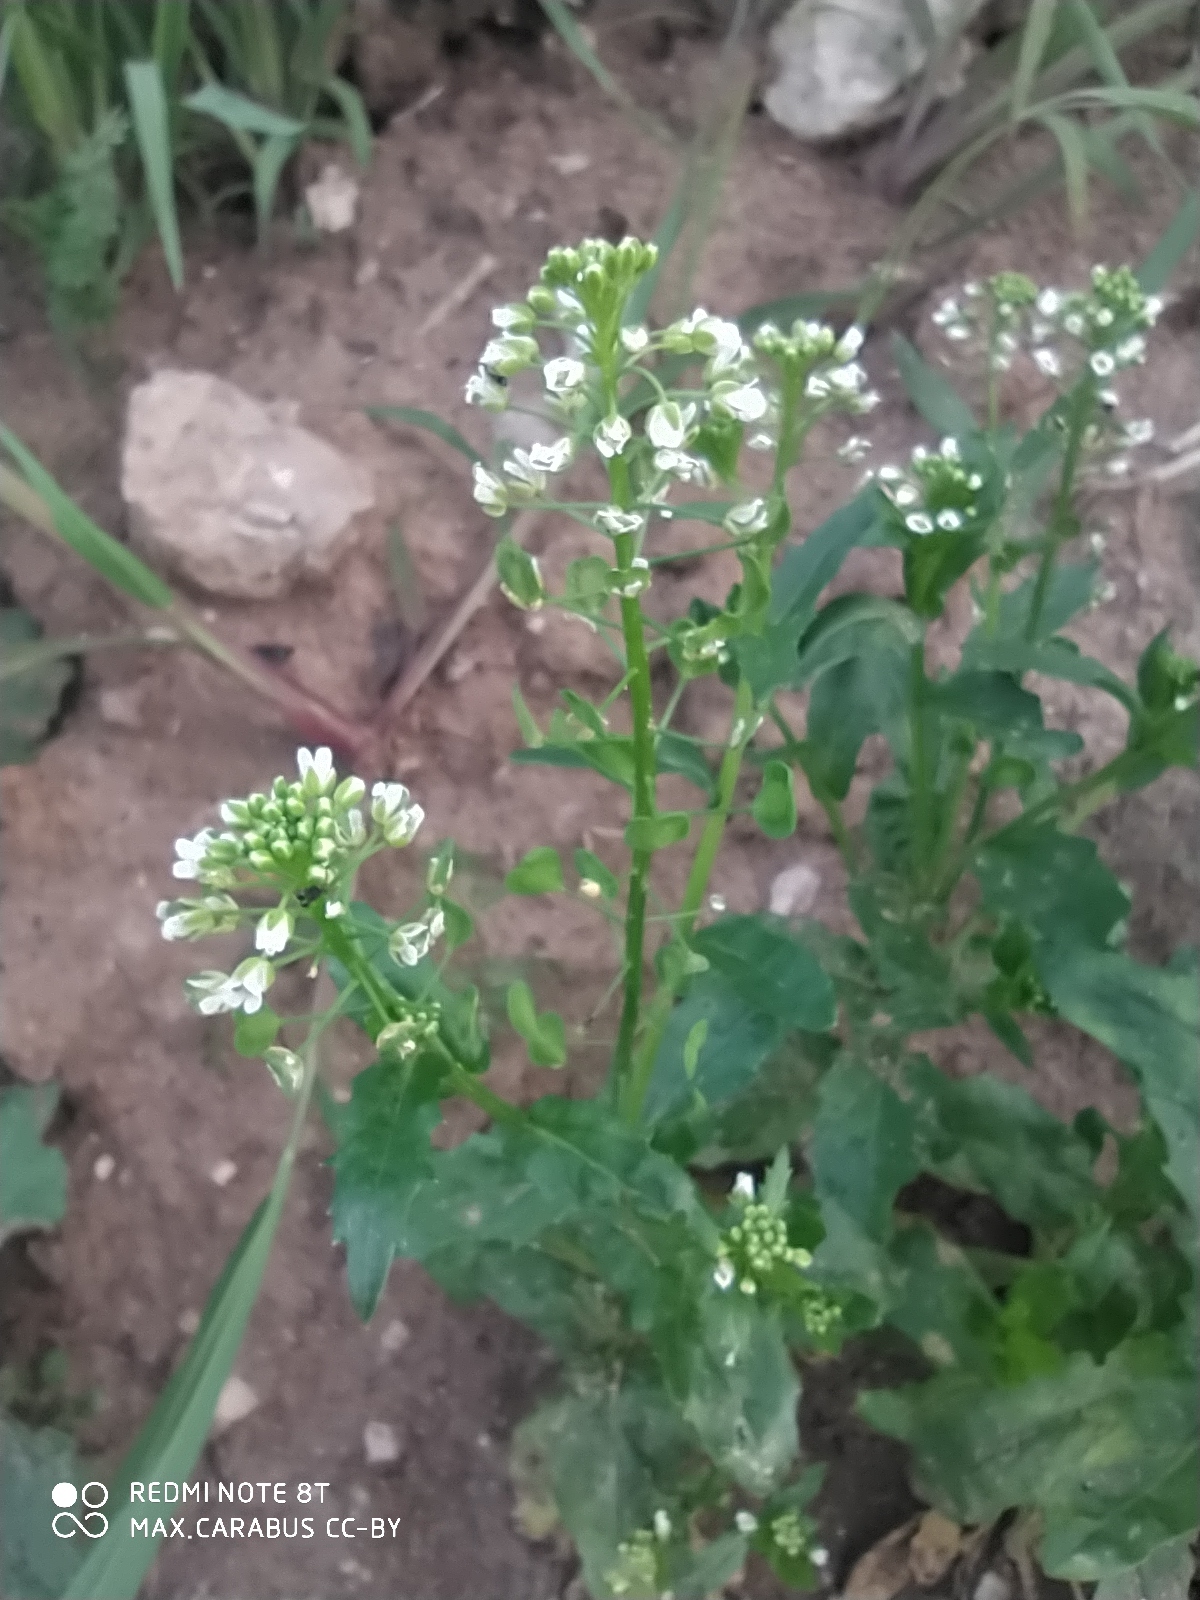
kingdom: Plantae
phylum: Tracheophyta
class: Magnoliopsida
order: Brassicales
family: Brassicaceae
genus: Thlaspi
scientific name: Thlaspi arvense
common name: Field pennycress
